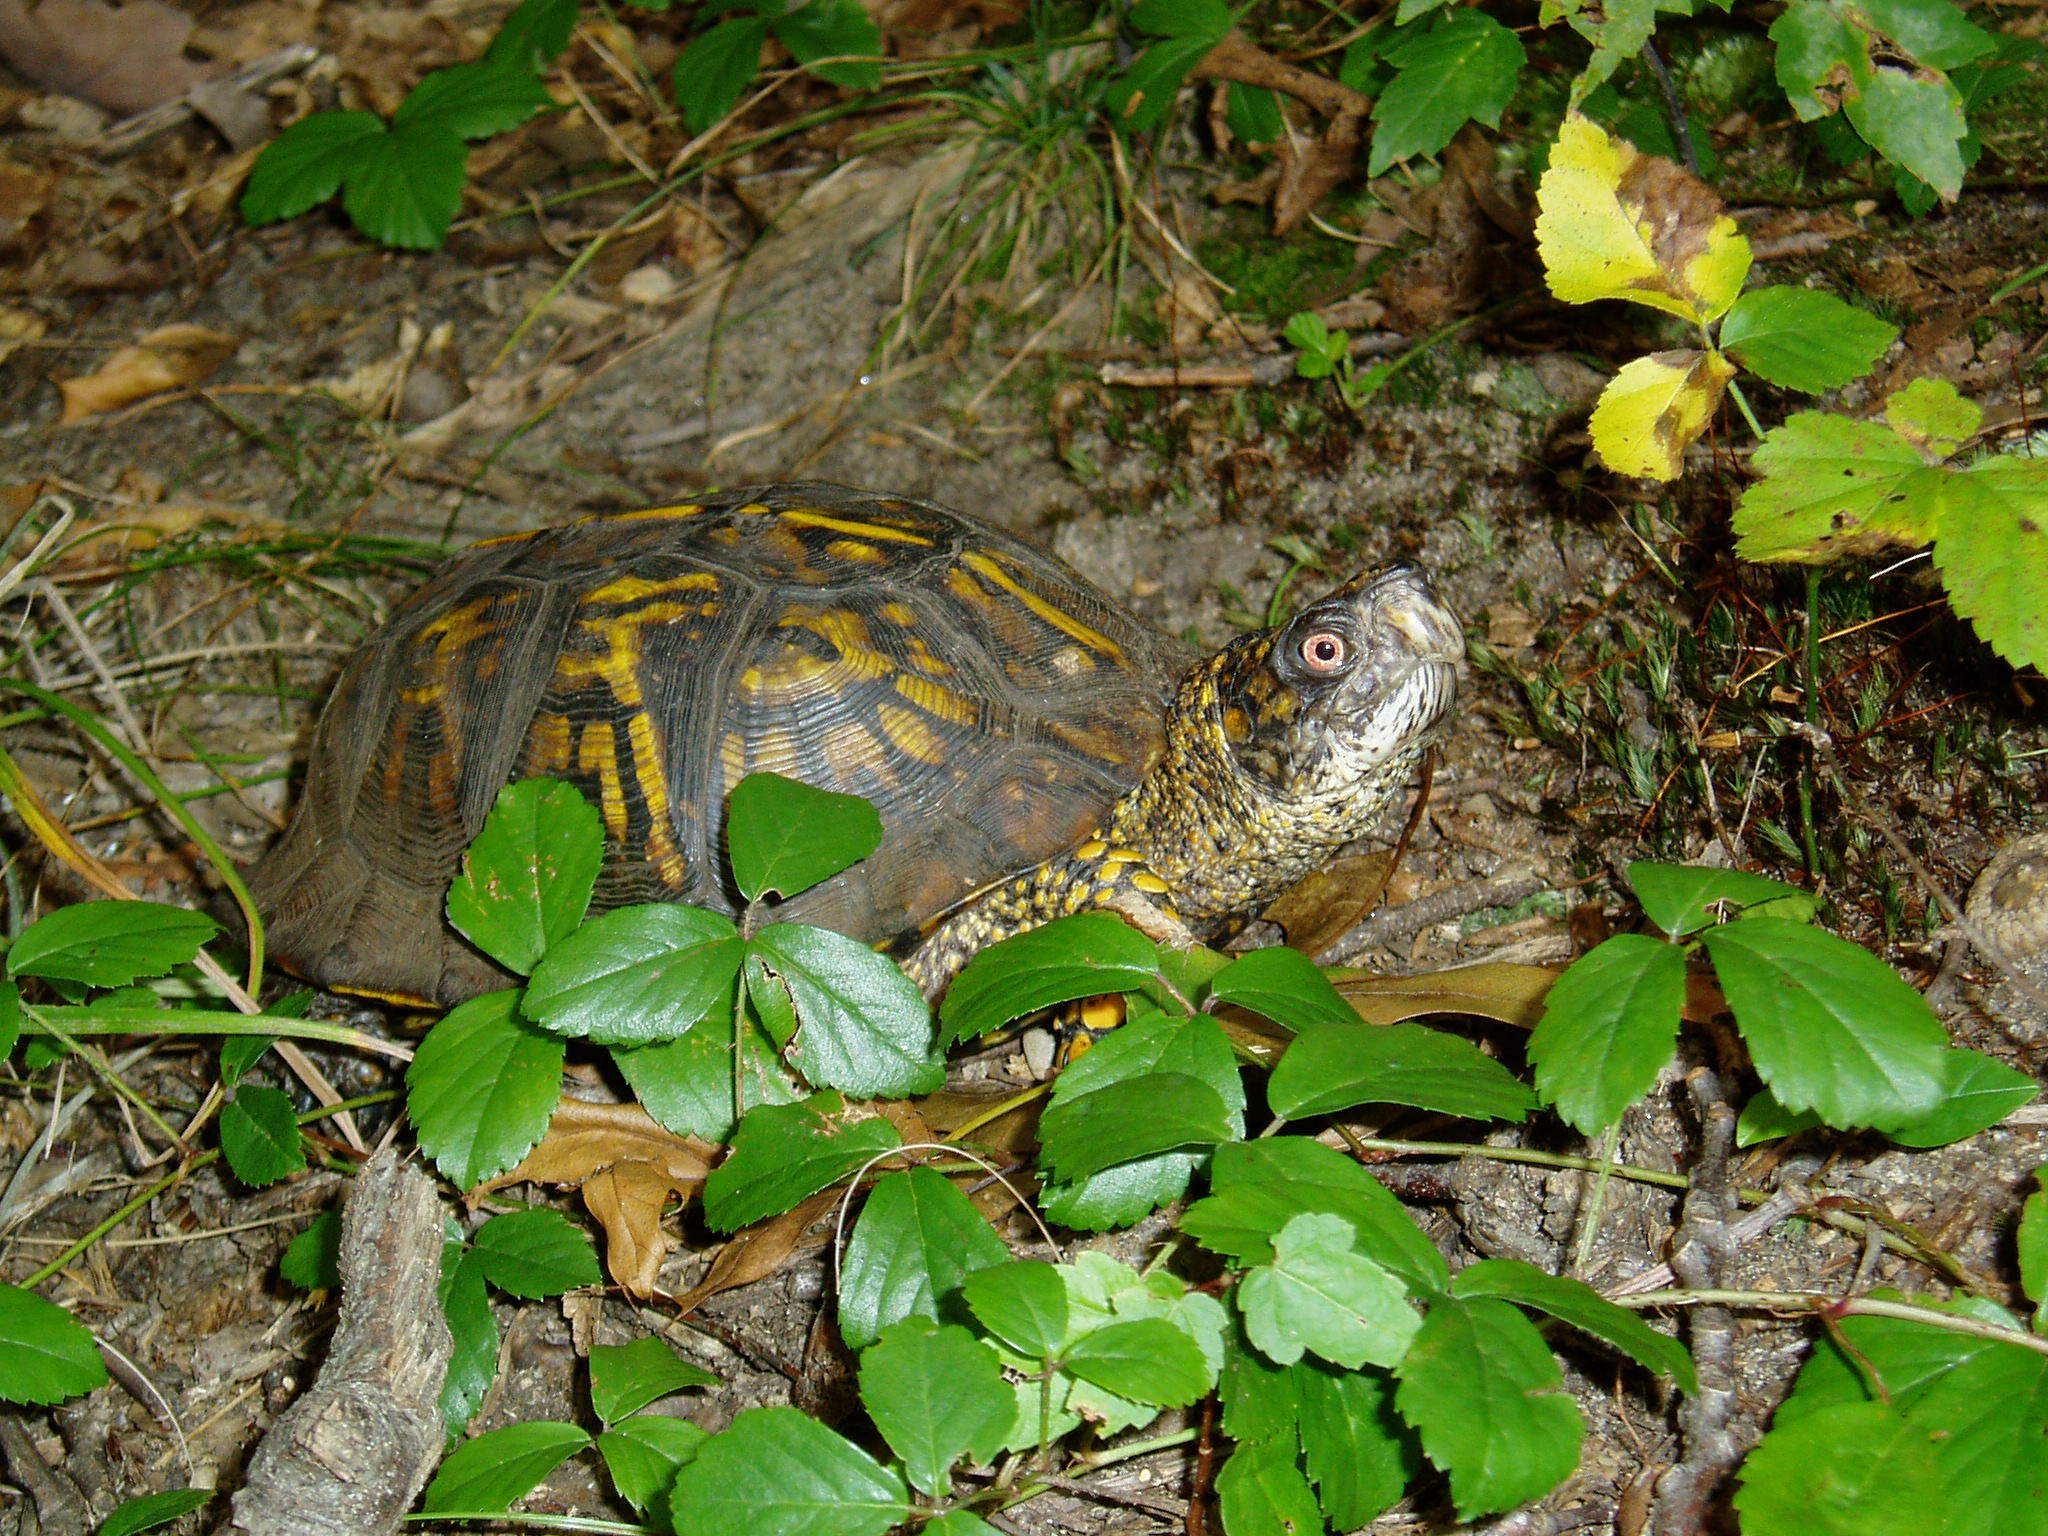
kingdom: Animalia
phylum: Chordata
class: Testudines
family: Emydidae
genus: Terrapene
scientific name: Terrapene carolina
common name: Common box turtle
